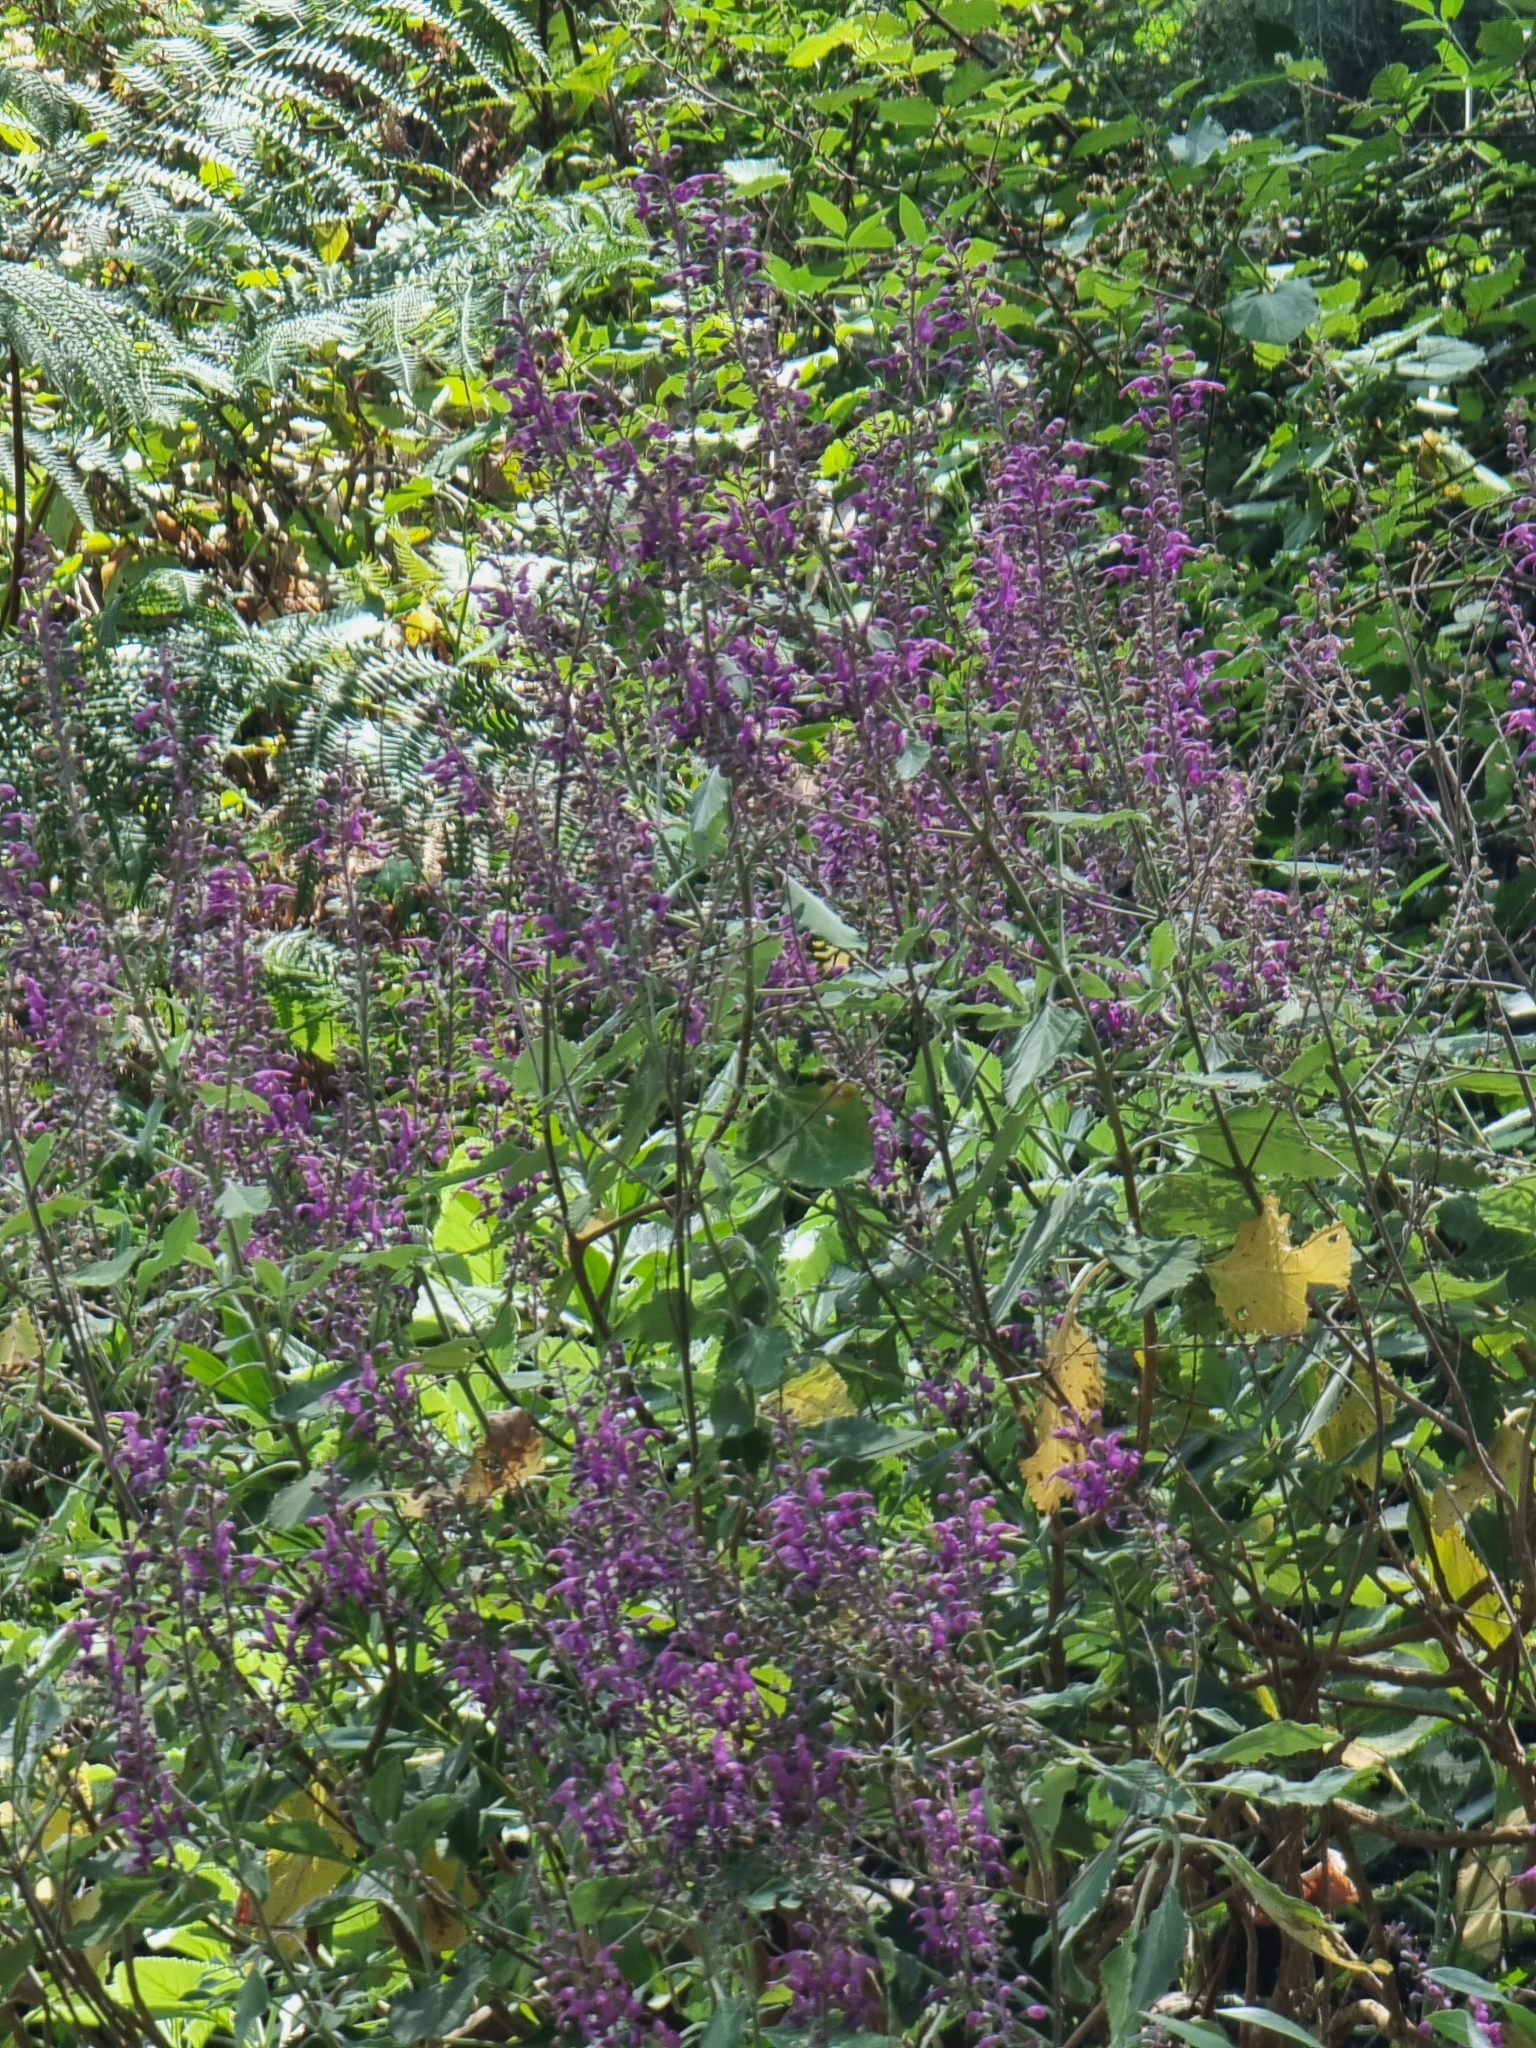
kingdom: Plantae
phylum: Tracheophyta
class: Magnoliopsida
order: Lamiales
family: Lamiaceae
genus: Teucrium
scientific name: Teucrium betonicum
